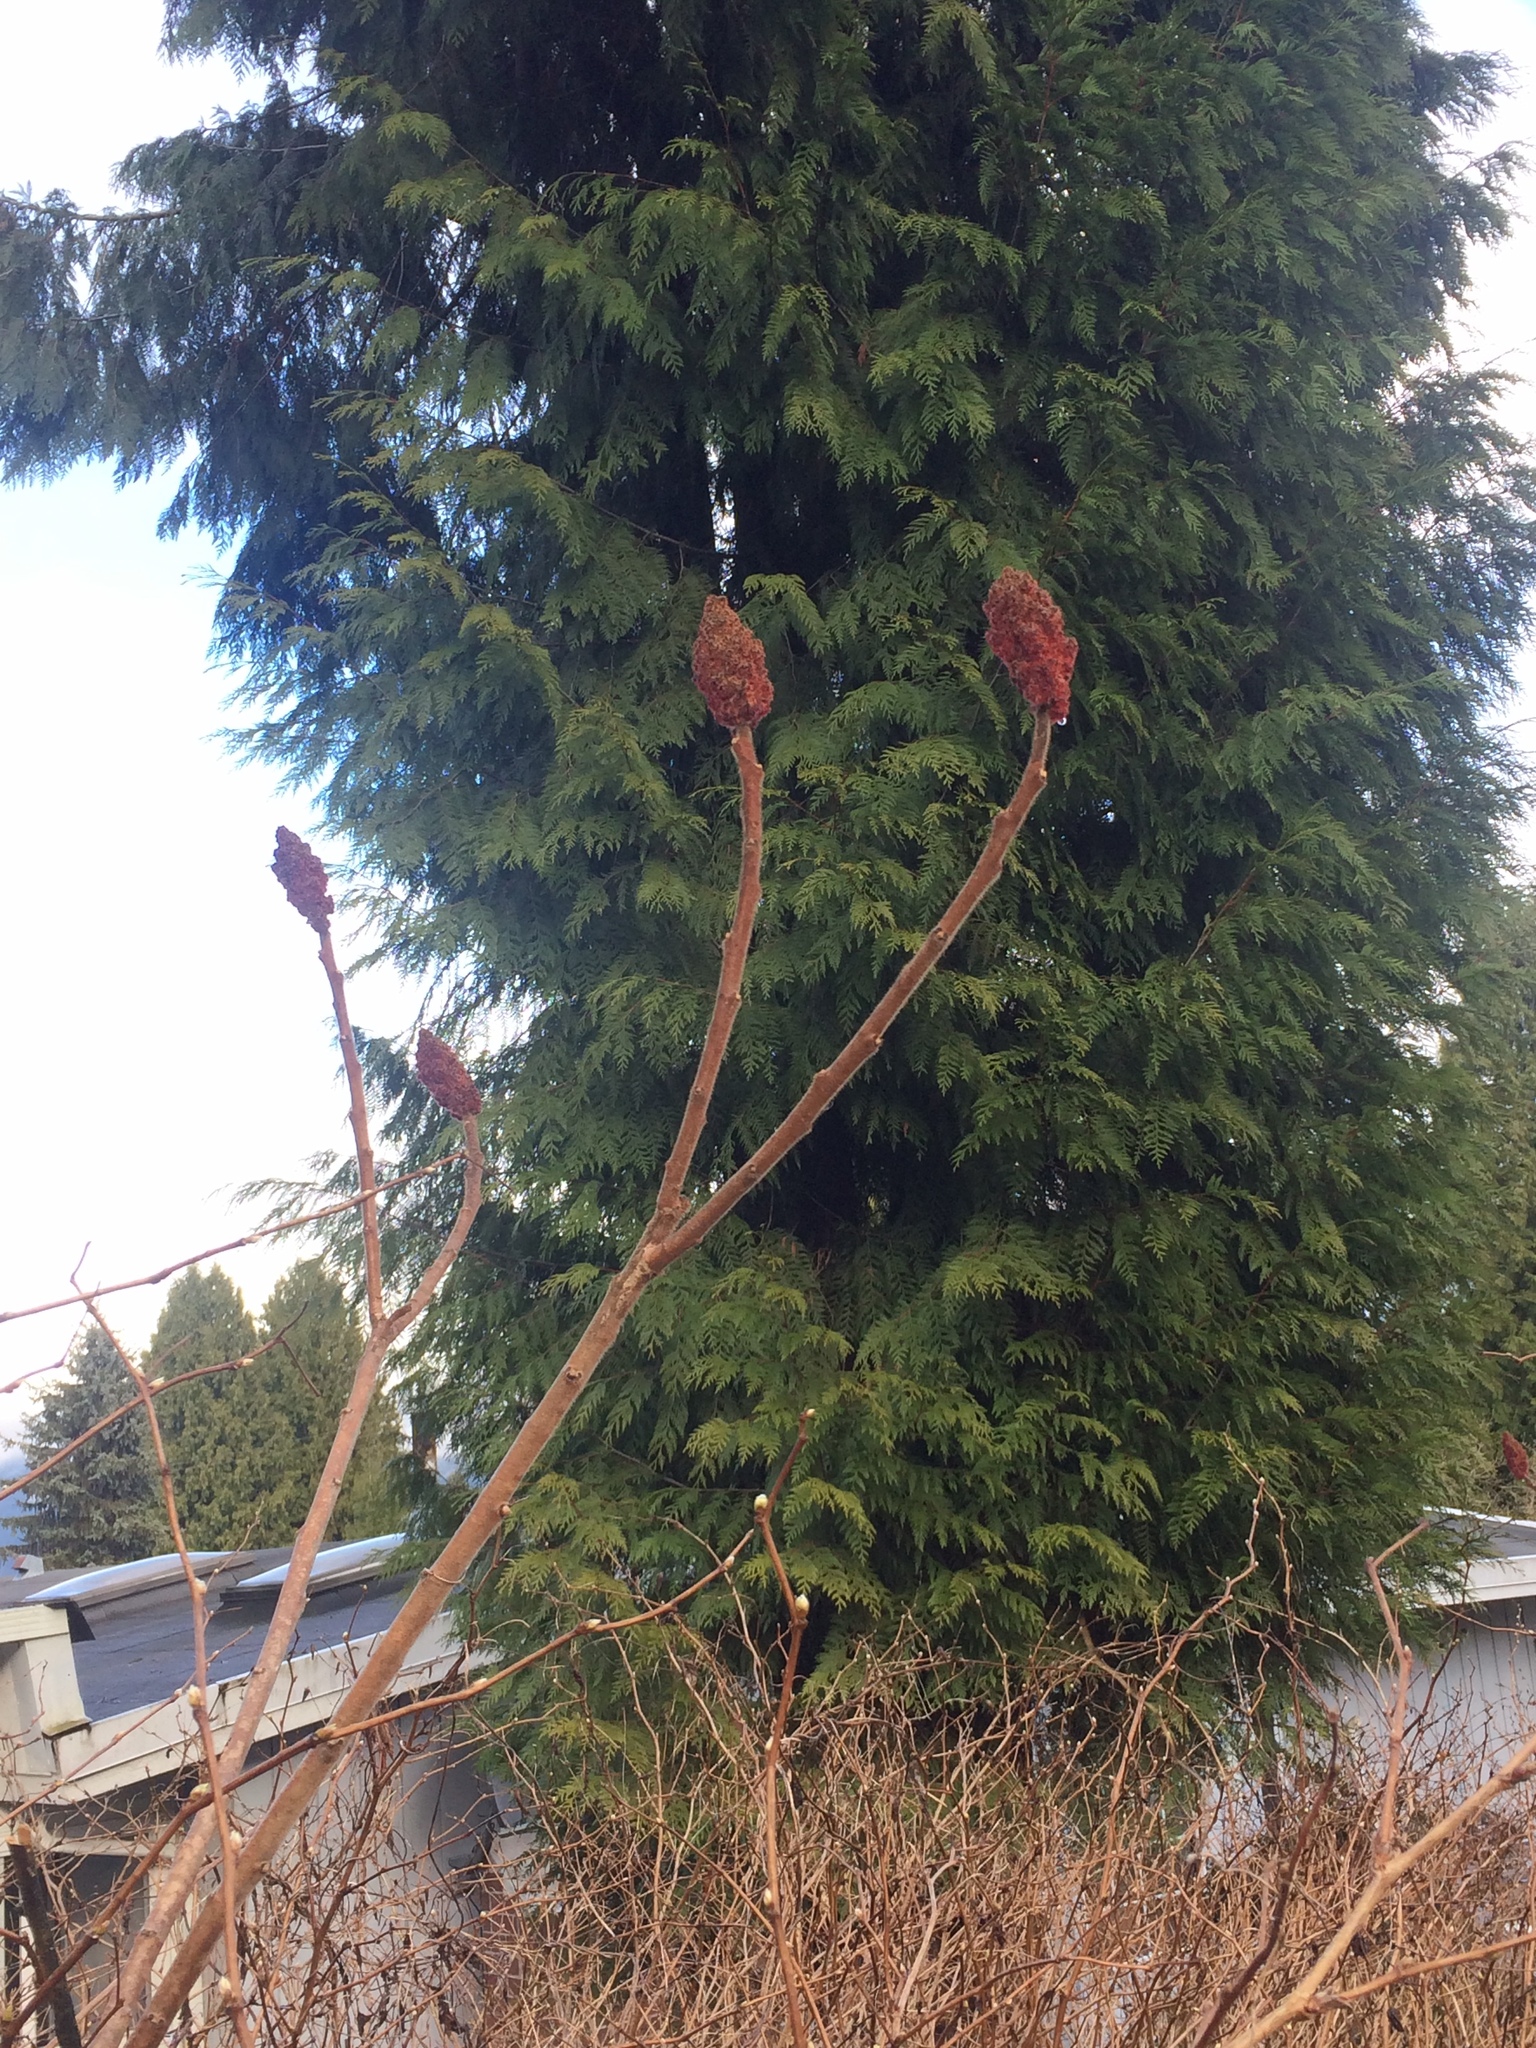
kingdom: Plantae
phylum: Tracheophyta
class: Magnoliopsida
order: Sapindales
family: Anacardiaceae
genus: Rhus
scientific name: Rhus typhina
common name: Staghorn sumac
